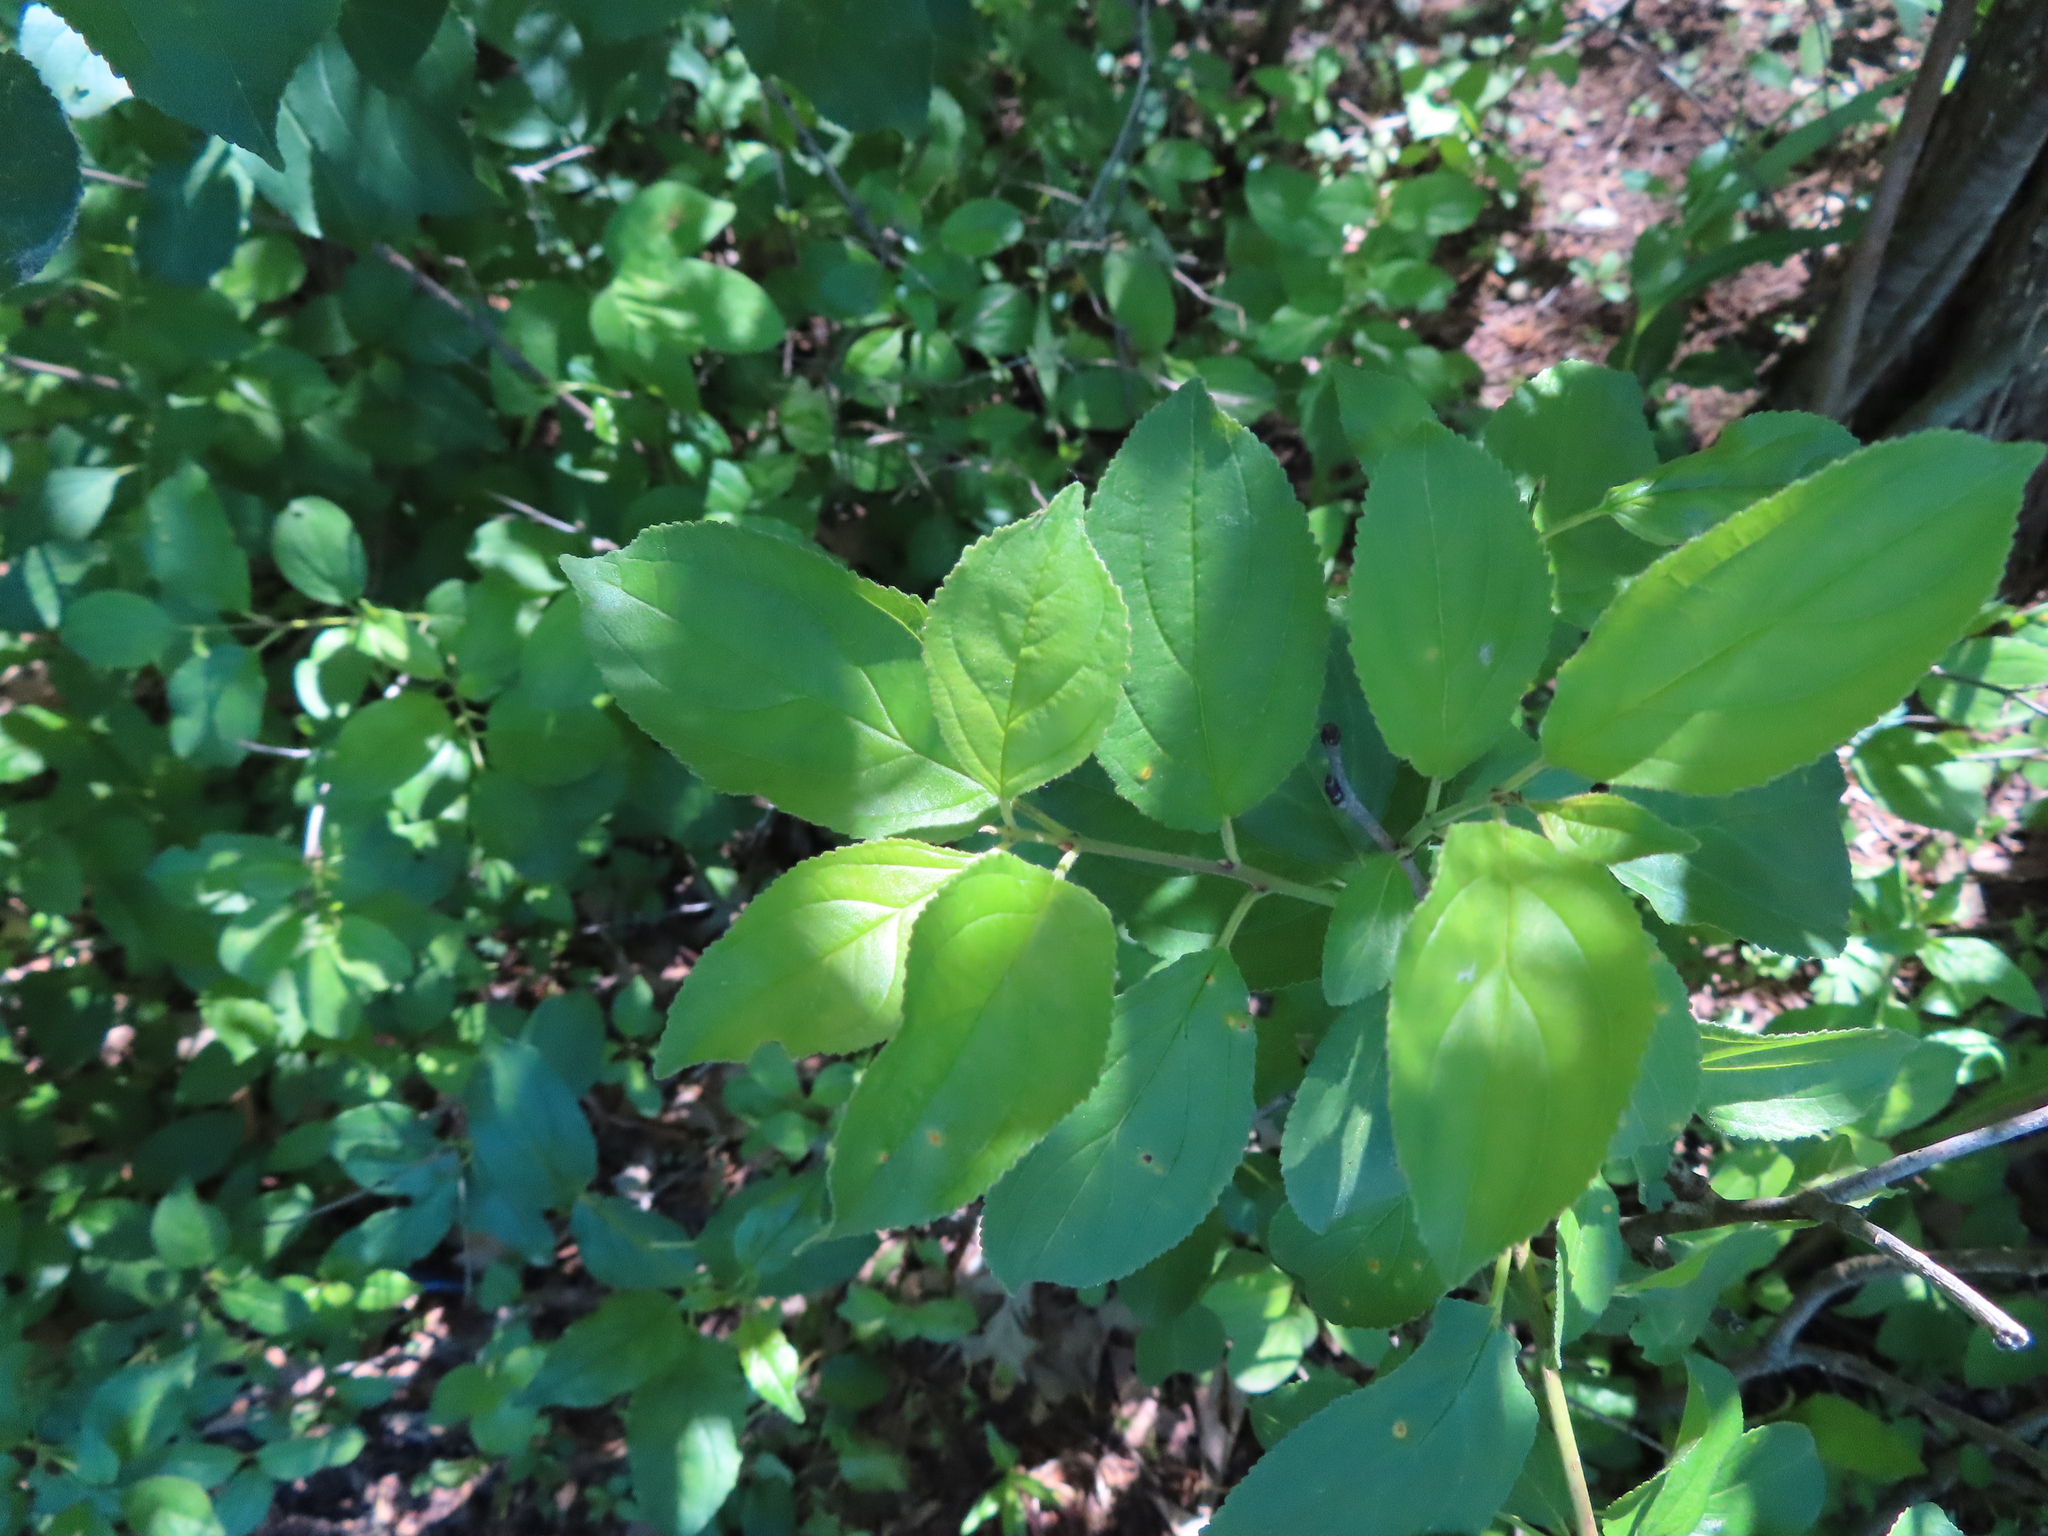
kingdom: Plantae
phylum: Tracheophyta
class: Magnoliopsida
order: Rosales
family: Rhamnaceae
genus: Rhamnus
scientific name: Rhamnus cathartica
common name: Common buckthorn
